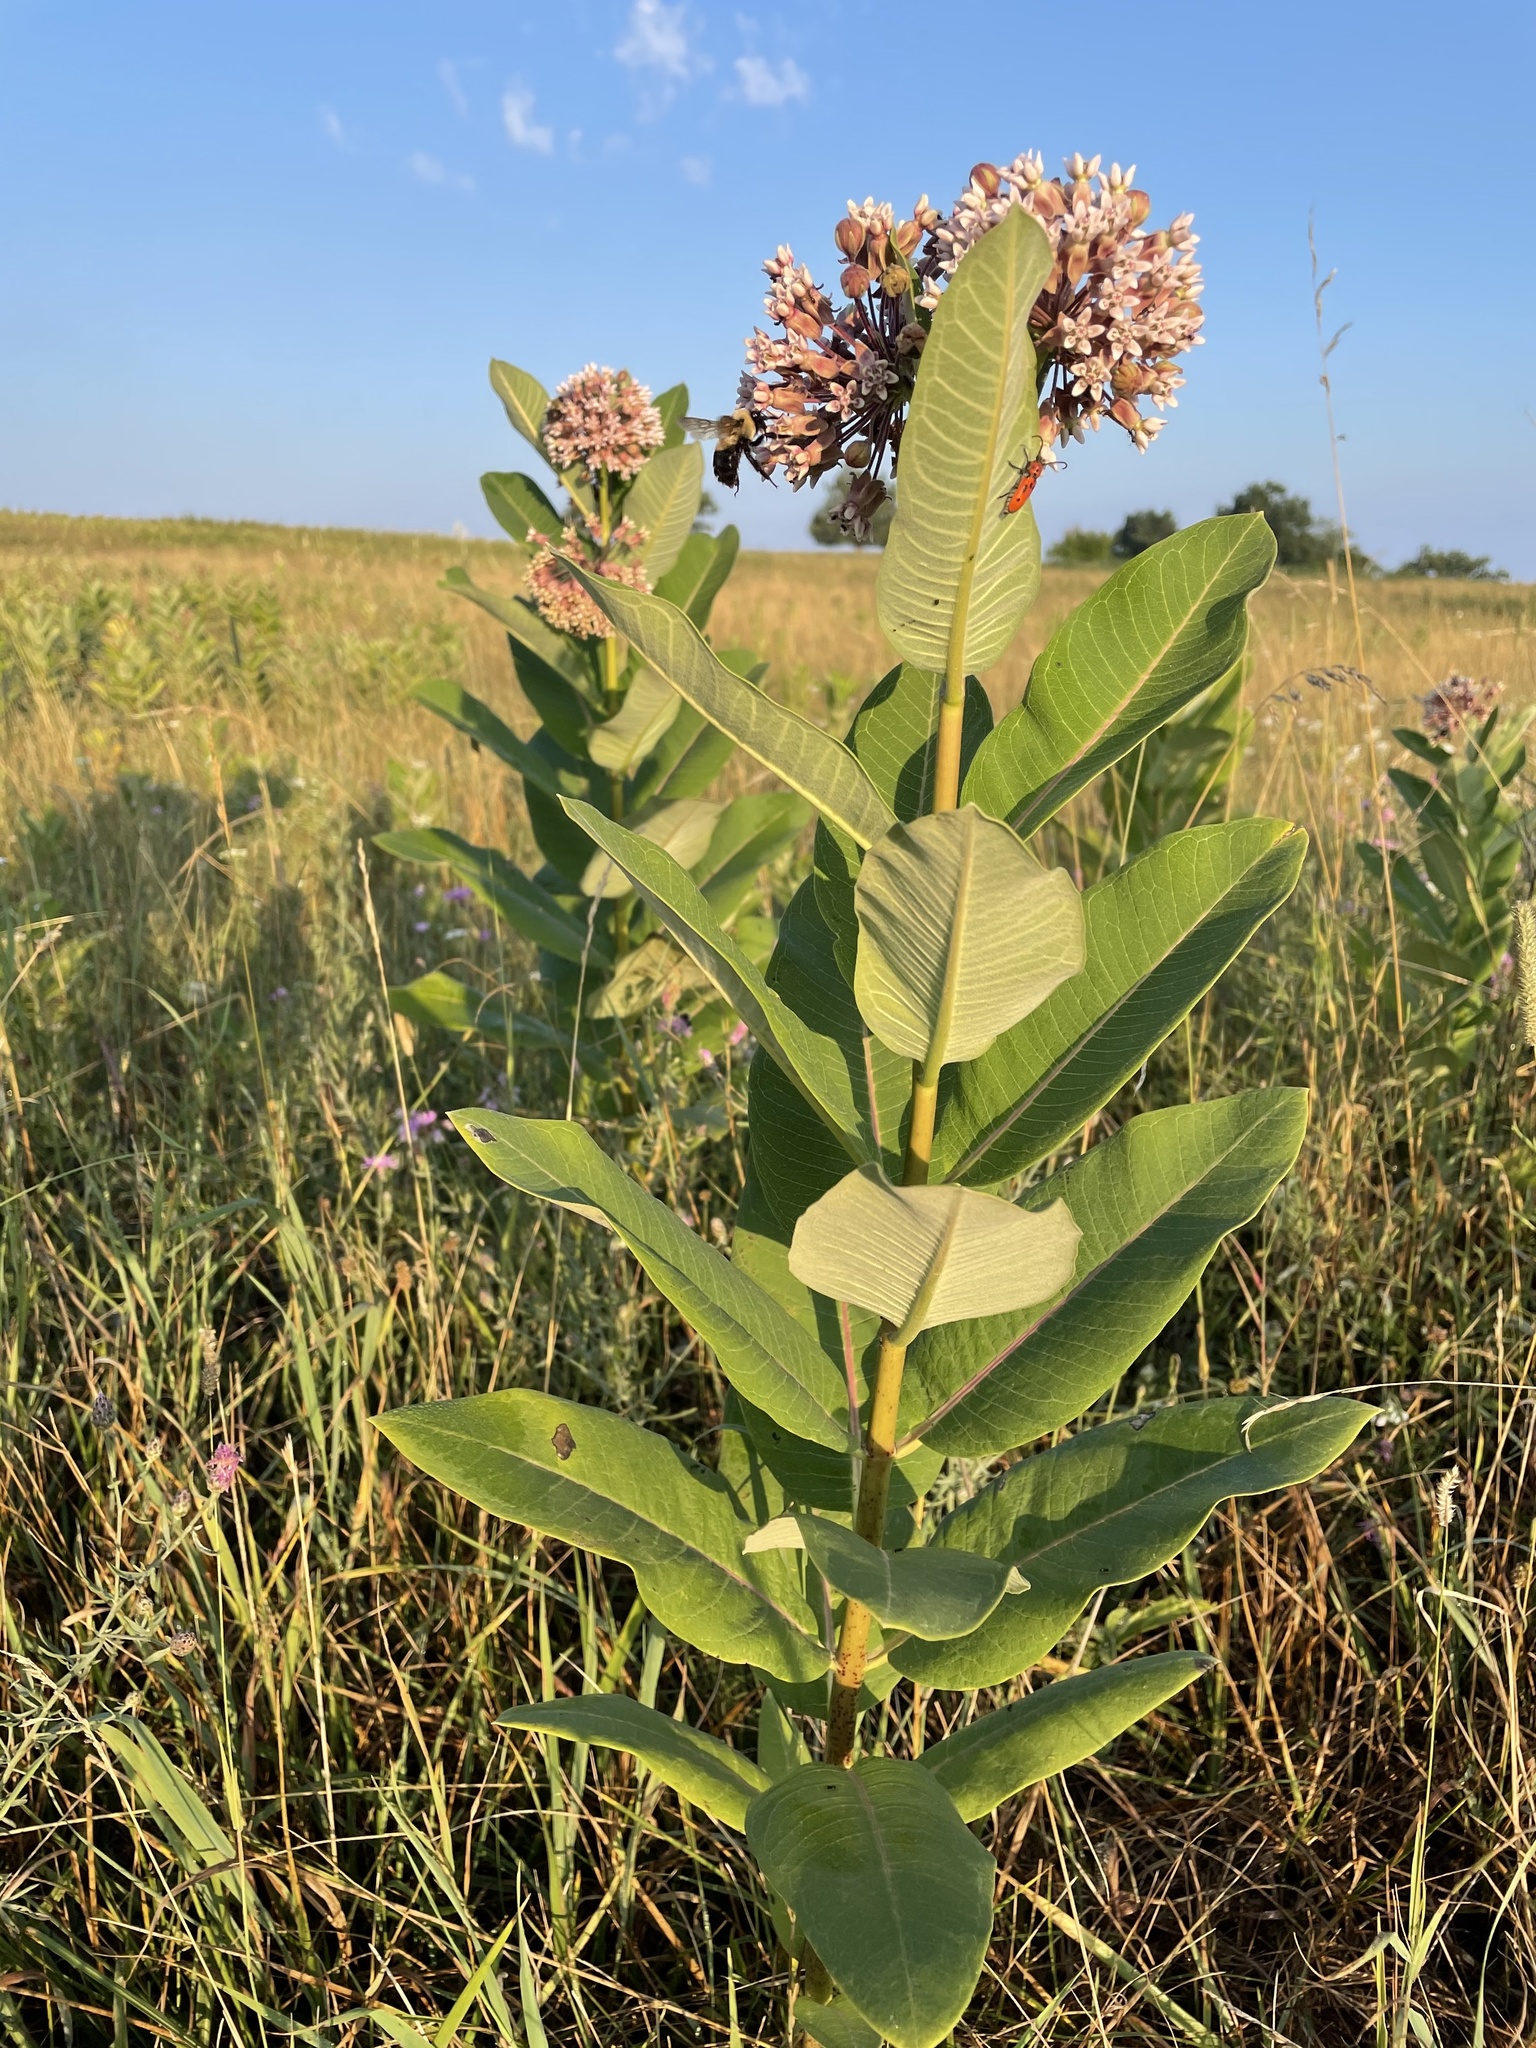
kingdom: Plantae
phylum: Tracheophyta
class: Magnoliopsida
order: Gentianales
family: Apocynaceae
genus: Asclepias
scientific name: Asclepias syriaca
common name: Common milkweed
